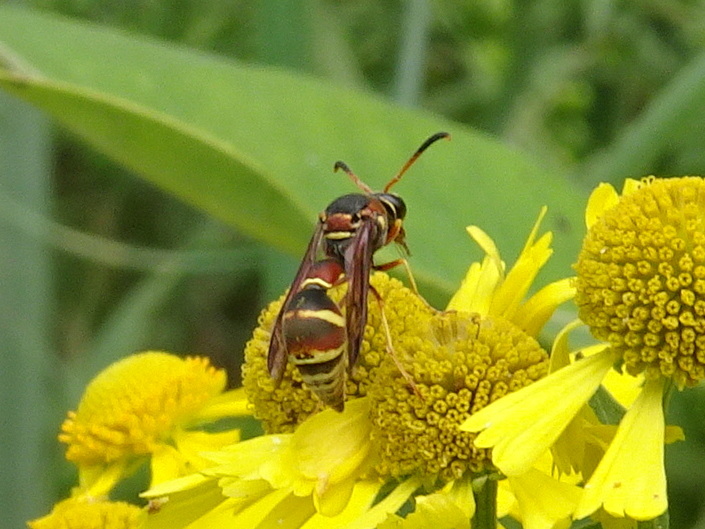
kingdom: Animalia
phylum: Arthropoda
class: Insecta
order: Hymenoptera
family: Vespidae
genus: Eumenes
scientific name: Eumenes smithii
